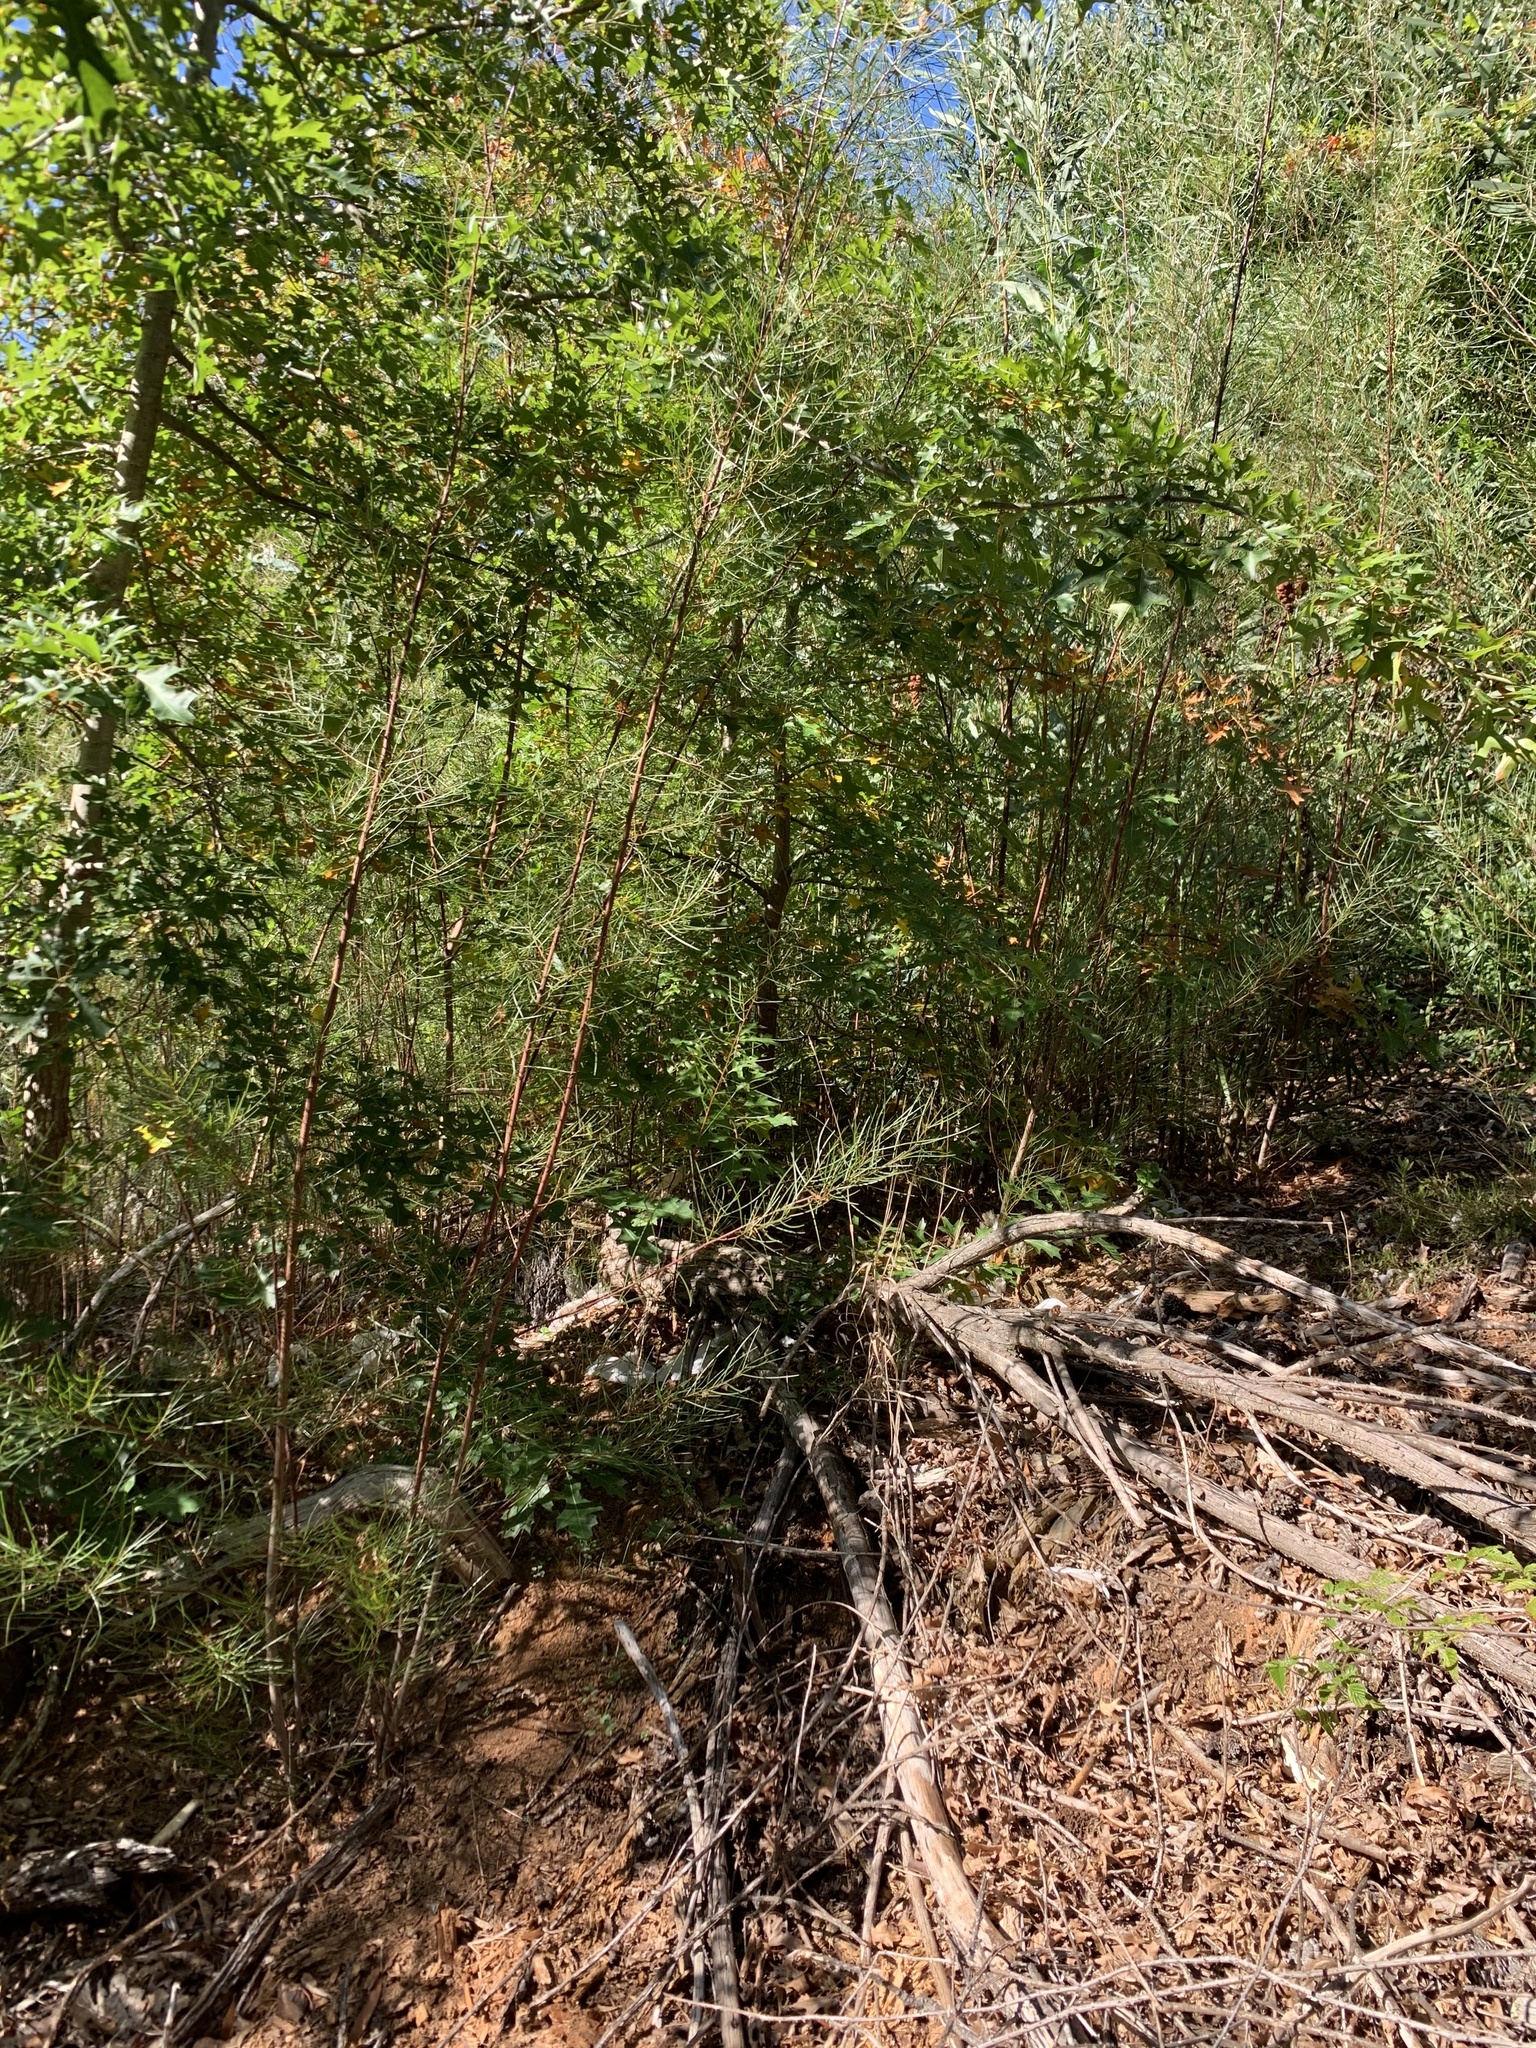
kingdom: Plantae
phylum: Tracheophyta
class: Magnoliopsida
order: Fabales
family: Fabaceae
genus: Acacia
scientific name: Acacia viscidula
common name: Sticky wattle
